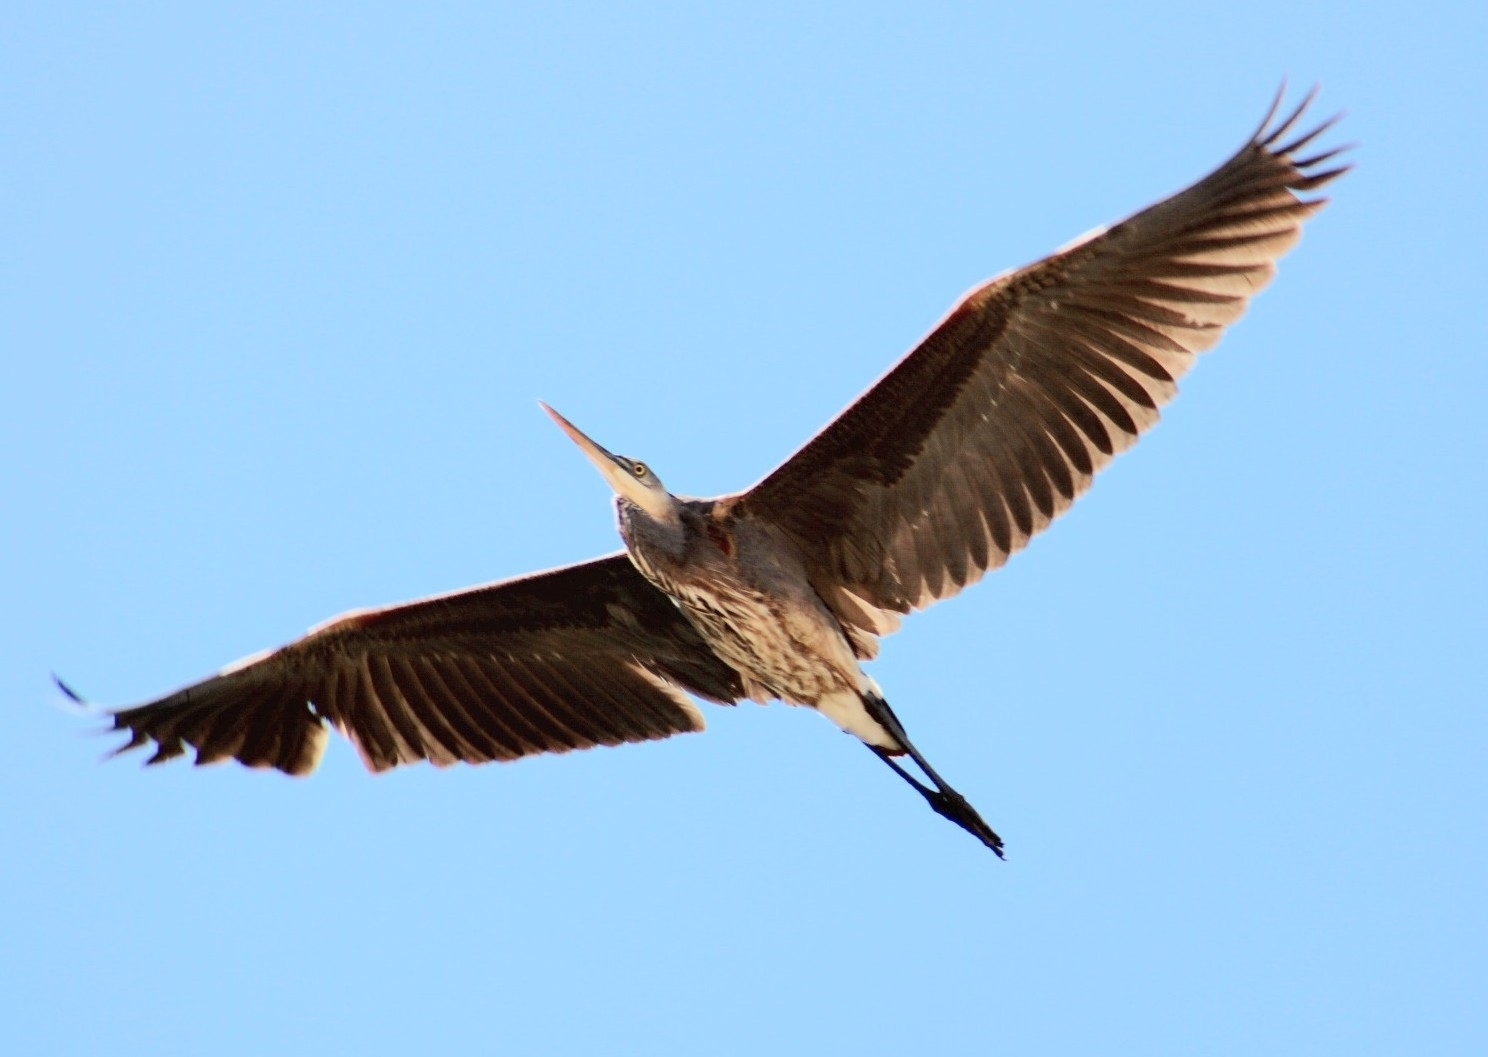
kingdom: Animalia
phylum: Chordata
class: Aves
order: Pelecaniformes
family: Ardeidae
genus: Ardea
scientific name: Ardea herodias
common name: Great blue heron
